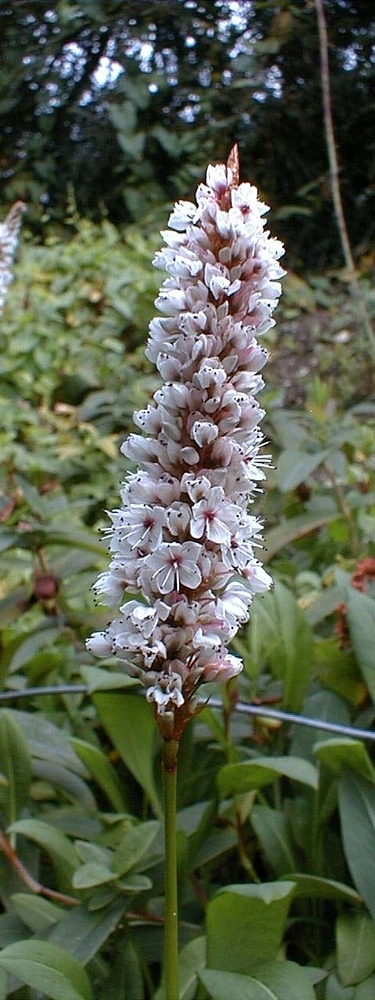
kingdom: Plantae
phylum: Tracheophyta
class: Magnoliopsida
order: Caryophyllales
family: Polygonaceae
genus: Bistorta
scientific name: Bistorta officinalis
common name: Common bistort
